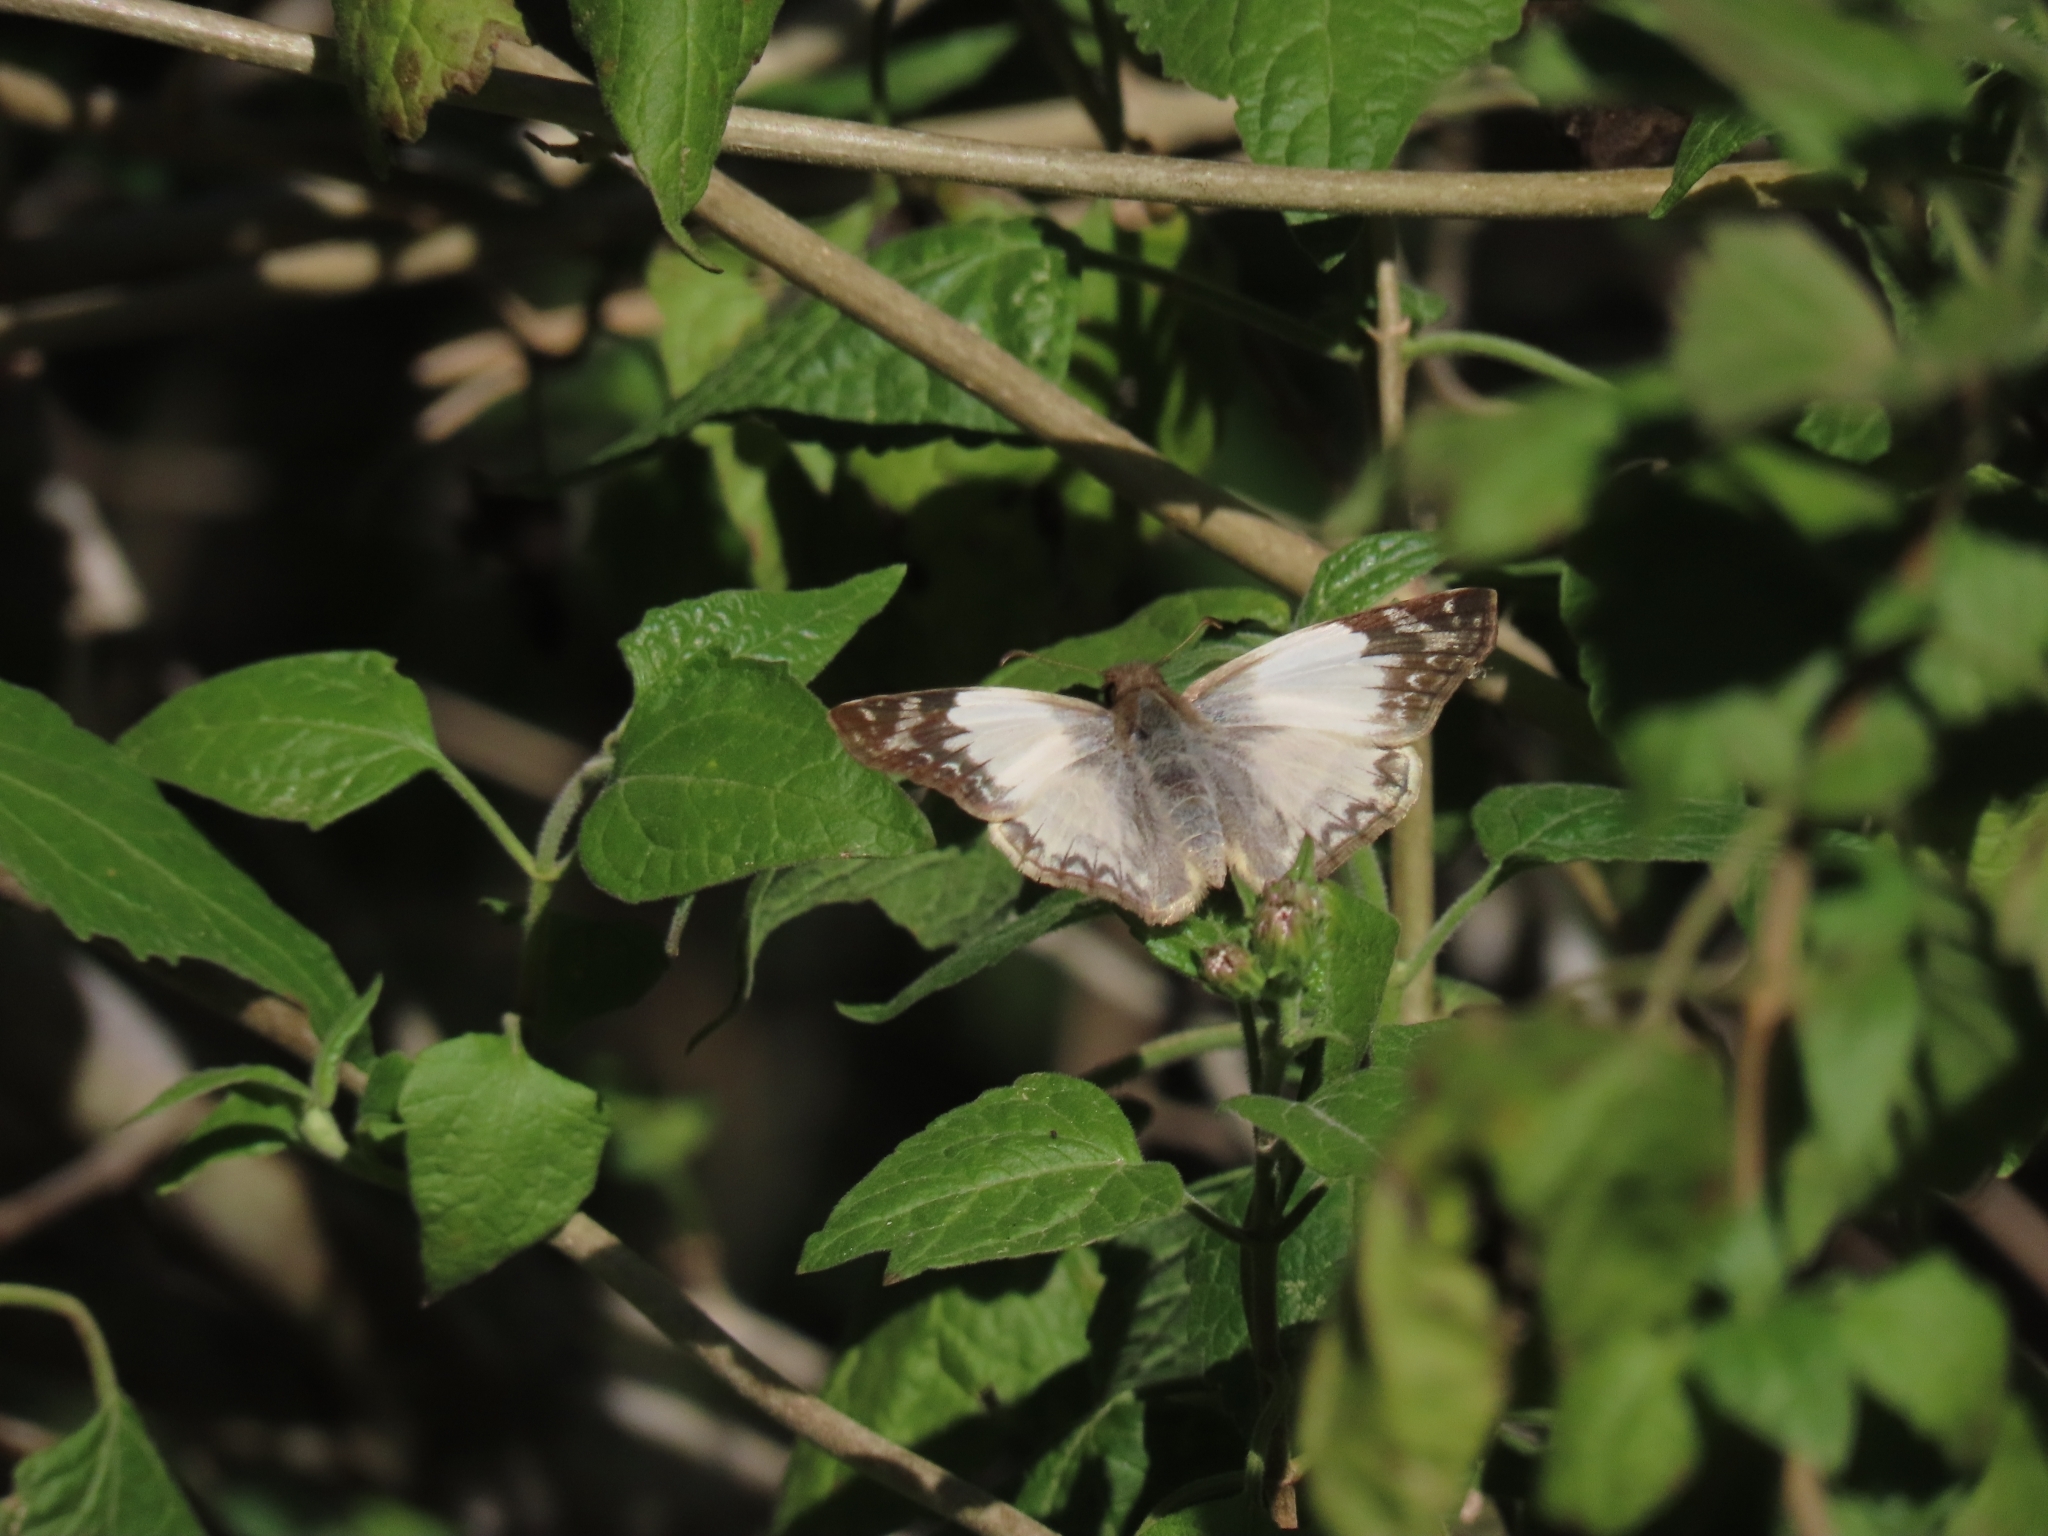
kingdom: Animalia
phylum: Arthropoda
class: Insecta
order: Lepidoptera
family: Hesperiidae
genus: Heliopetes
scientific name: Heliopetes laviana
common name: Laviana white-skipper
